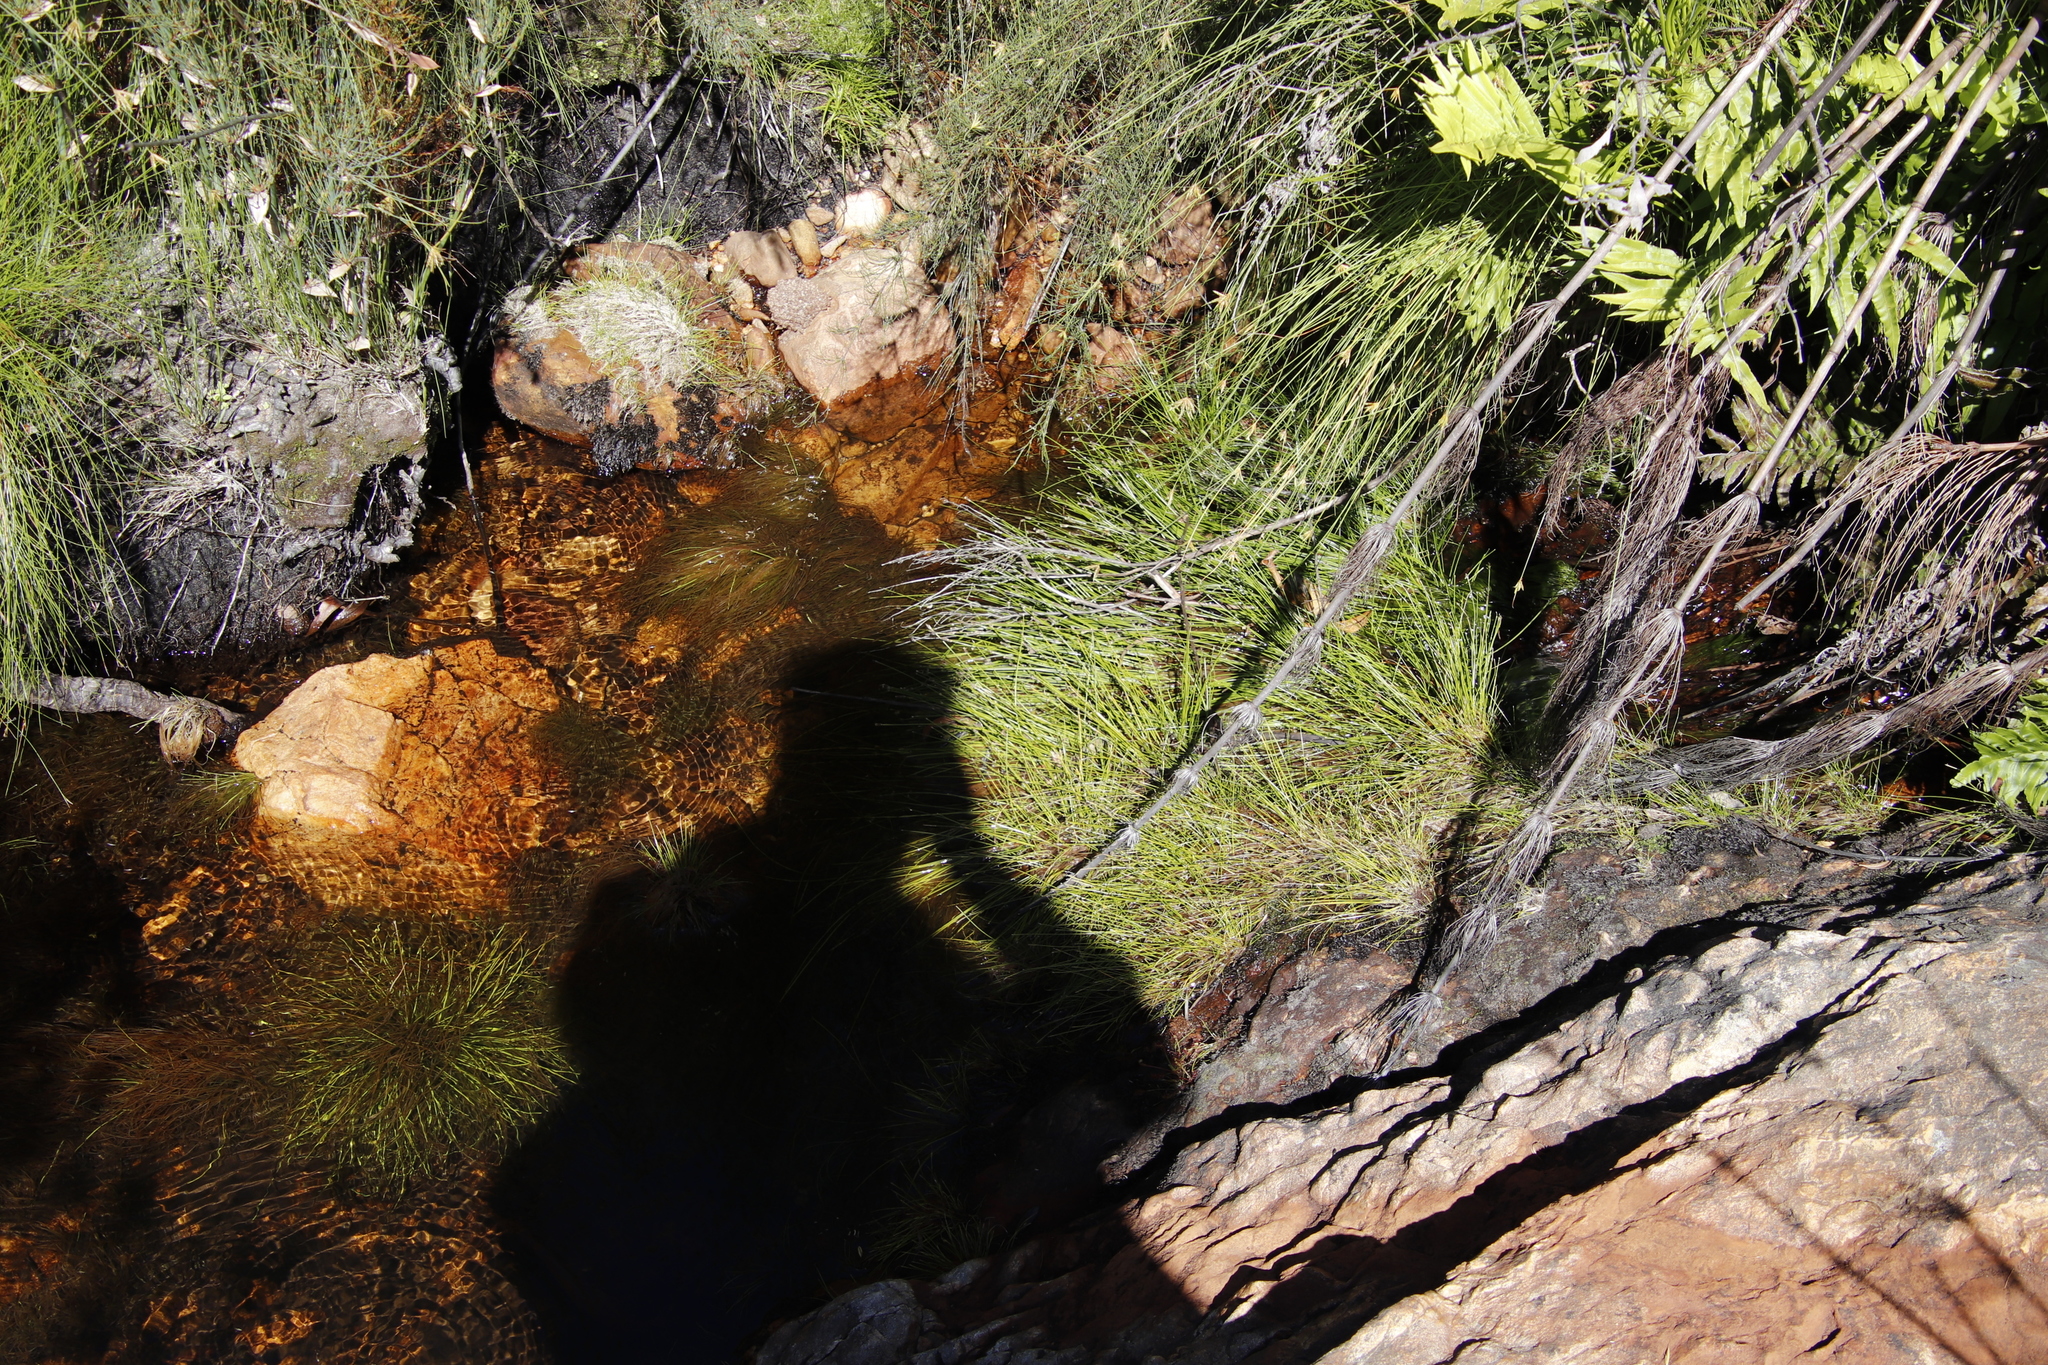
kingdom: Plantae
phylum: Tracheophyta
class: Liliopsida
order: Poales
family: Cyperaceae
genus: Isolepis
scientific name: Isolepis digitata
